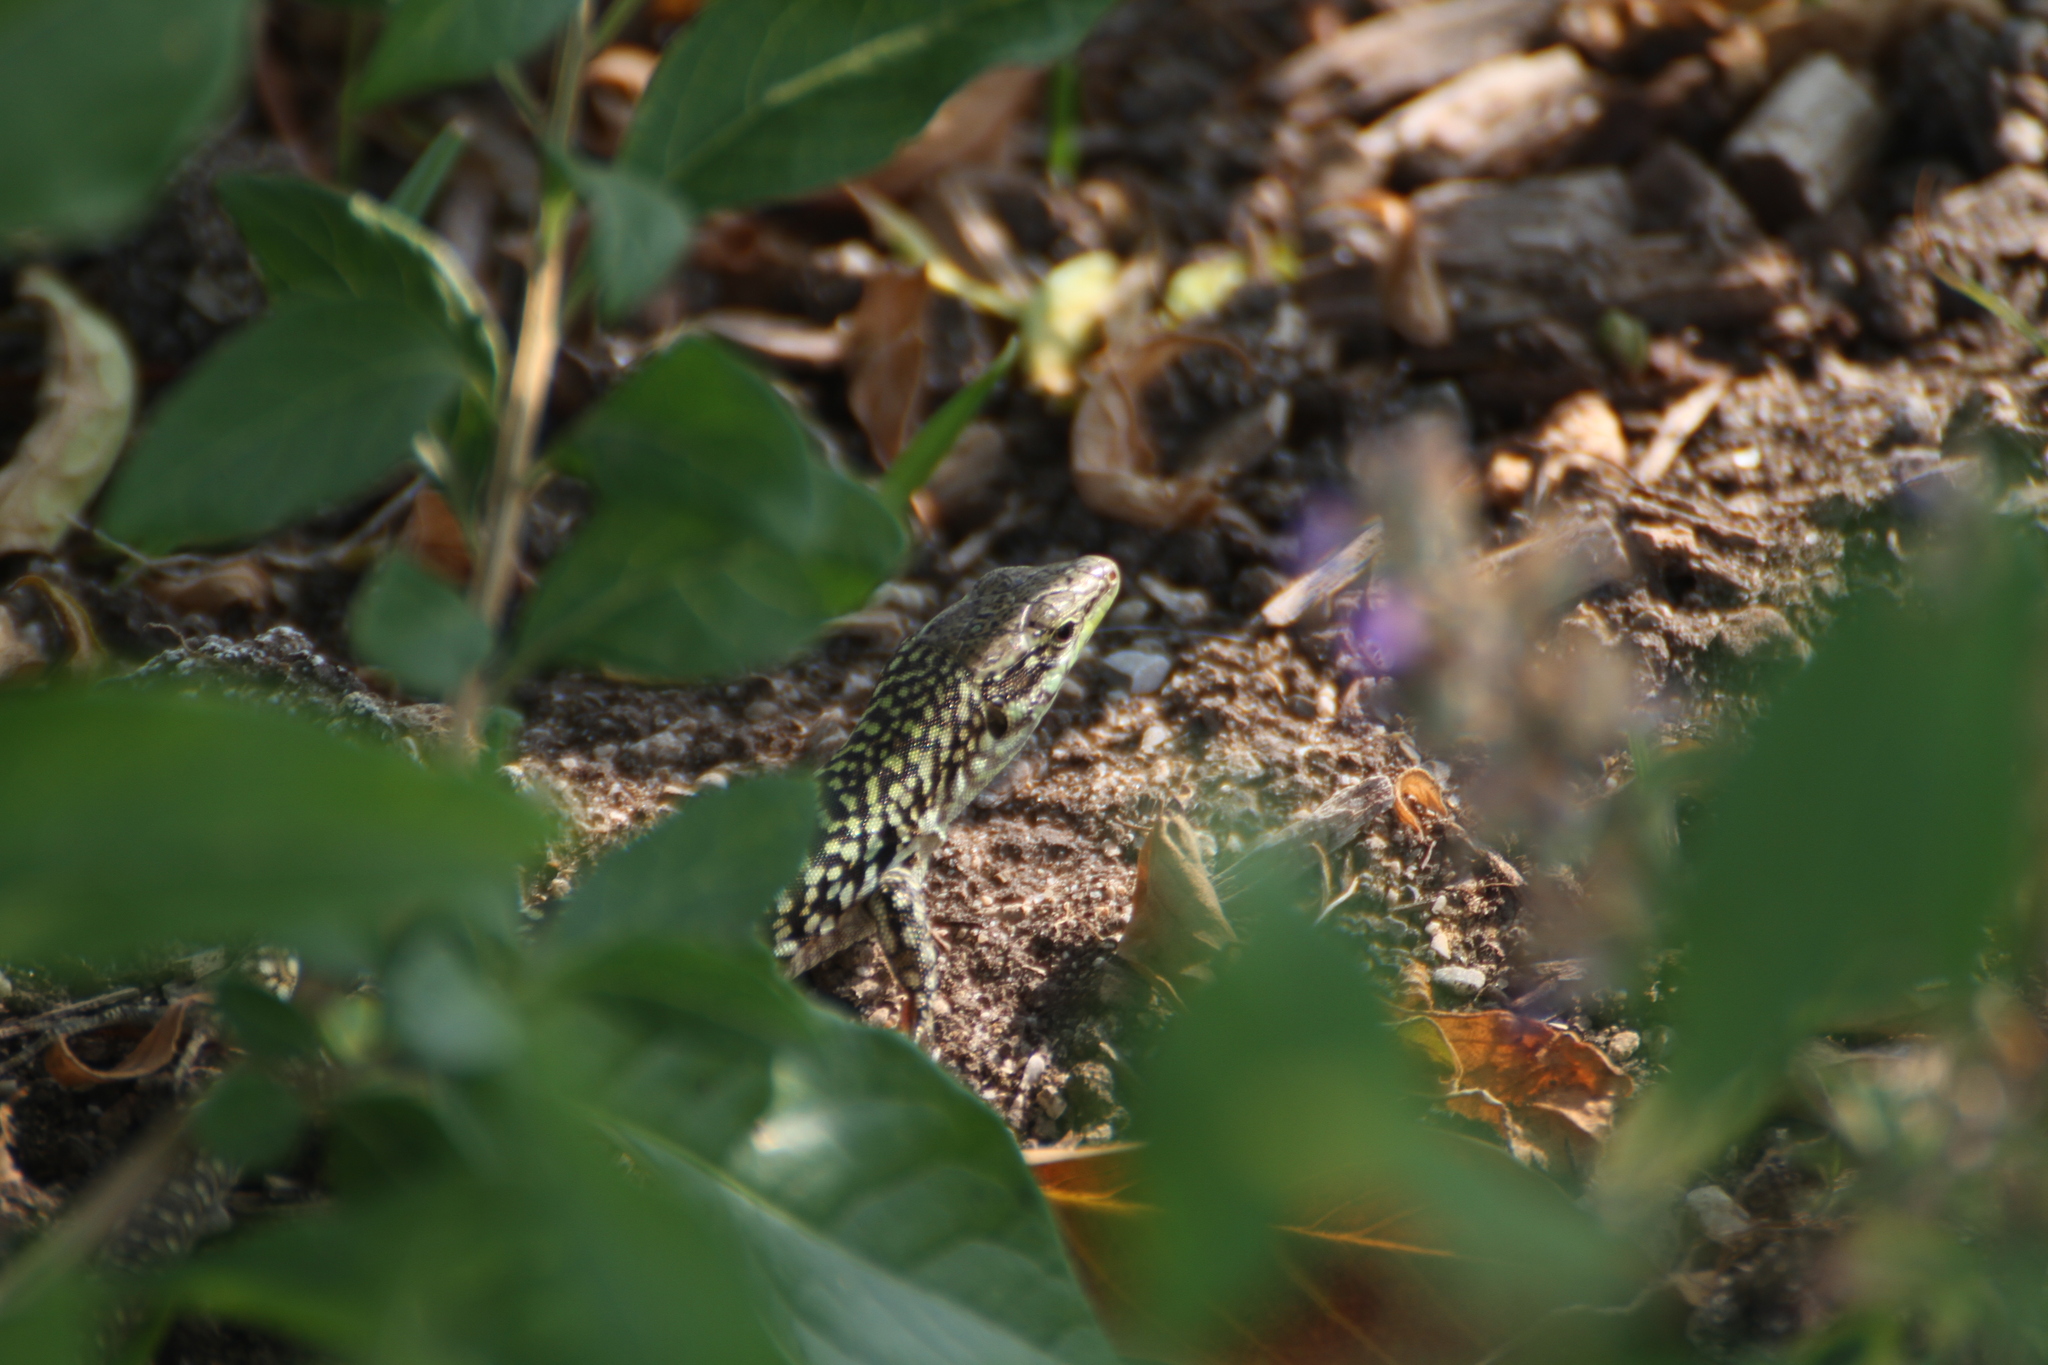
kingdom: Animalia
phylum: Chordata
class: Squamata
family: Lacertidae
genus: Podarcis
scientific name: Podarcis siculus
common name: Italian wall lizard
